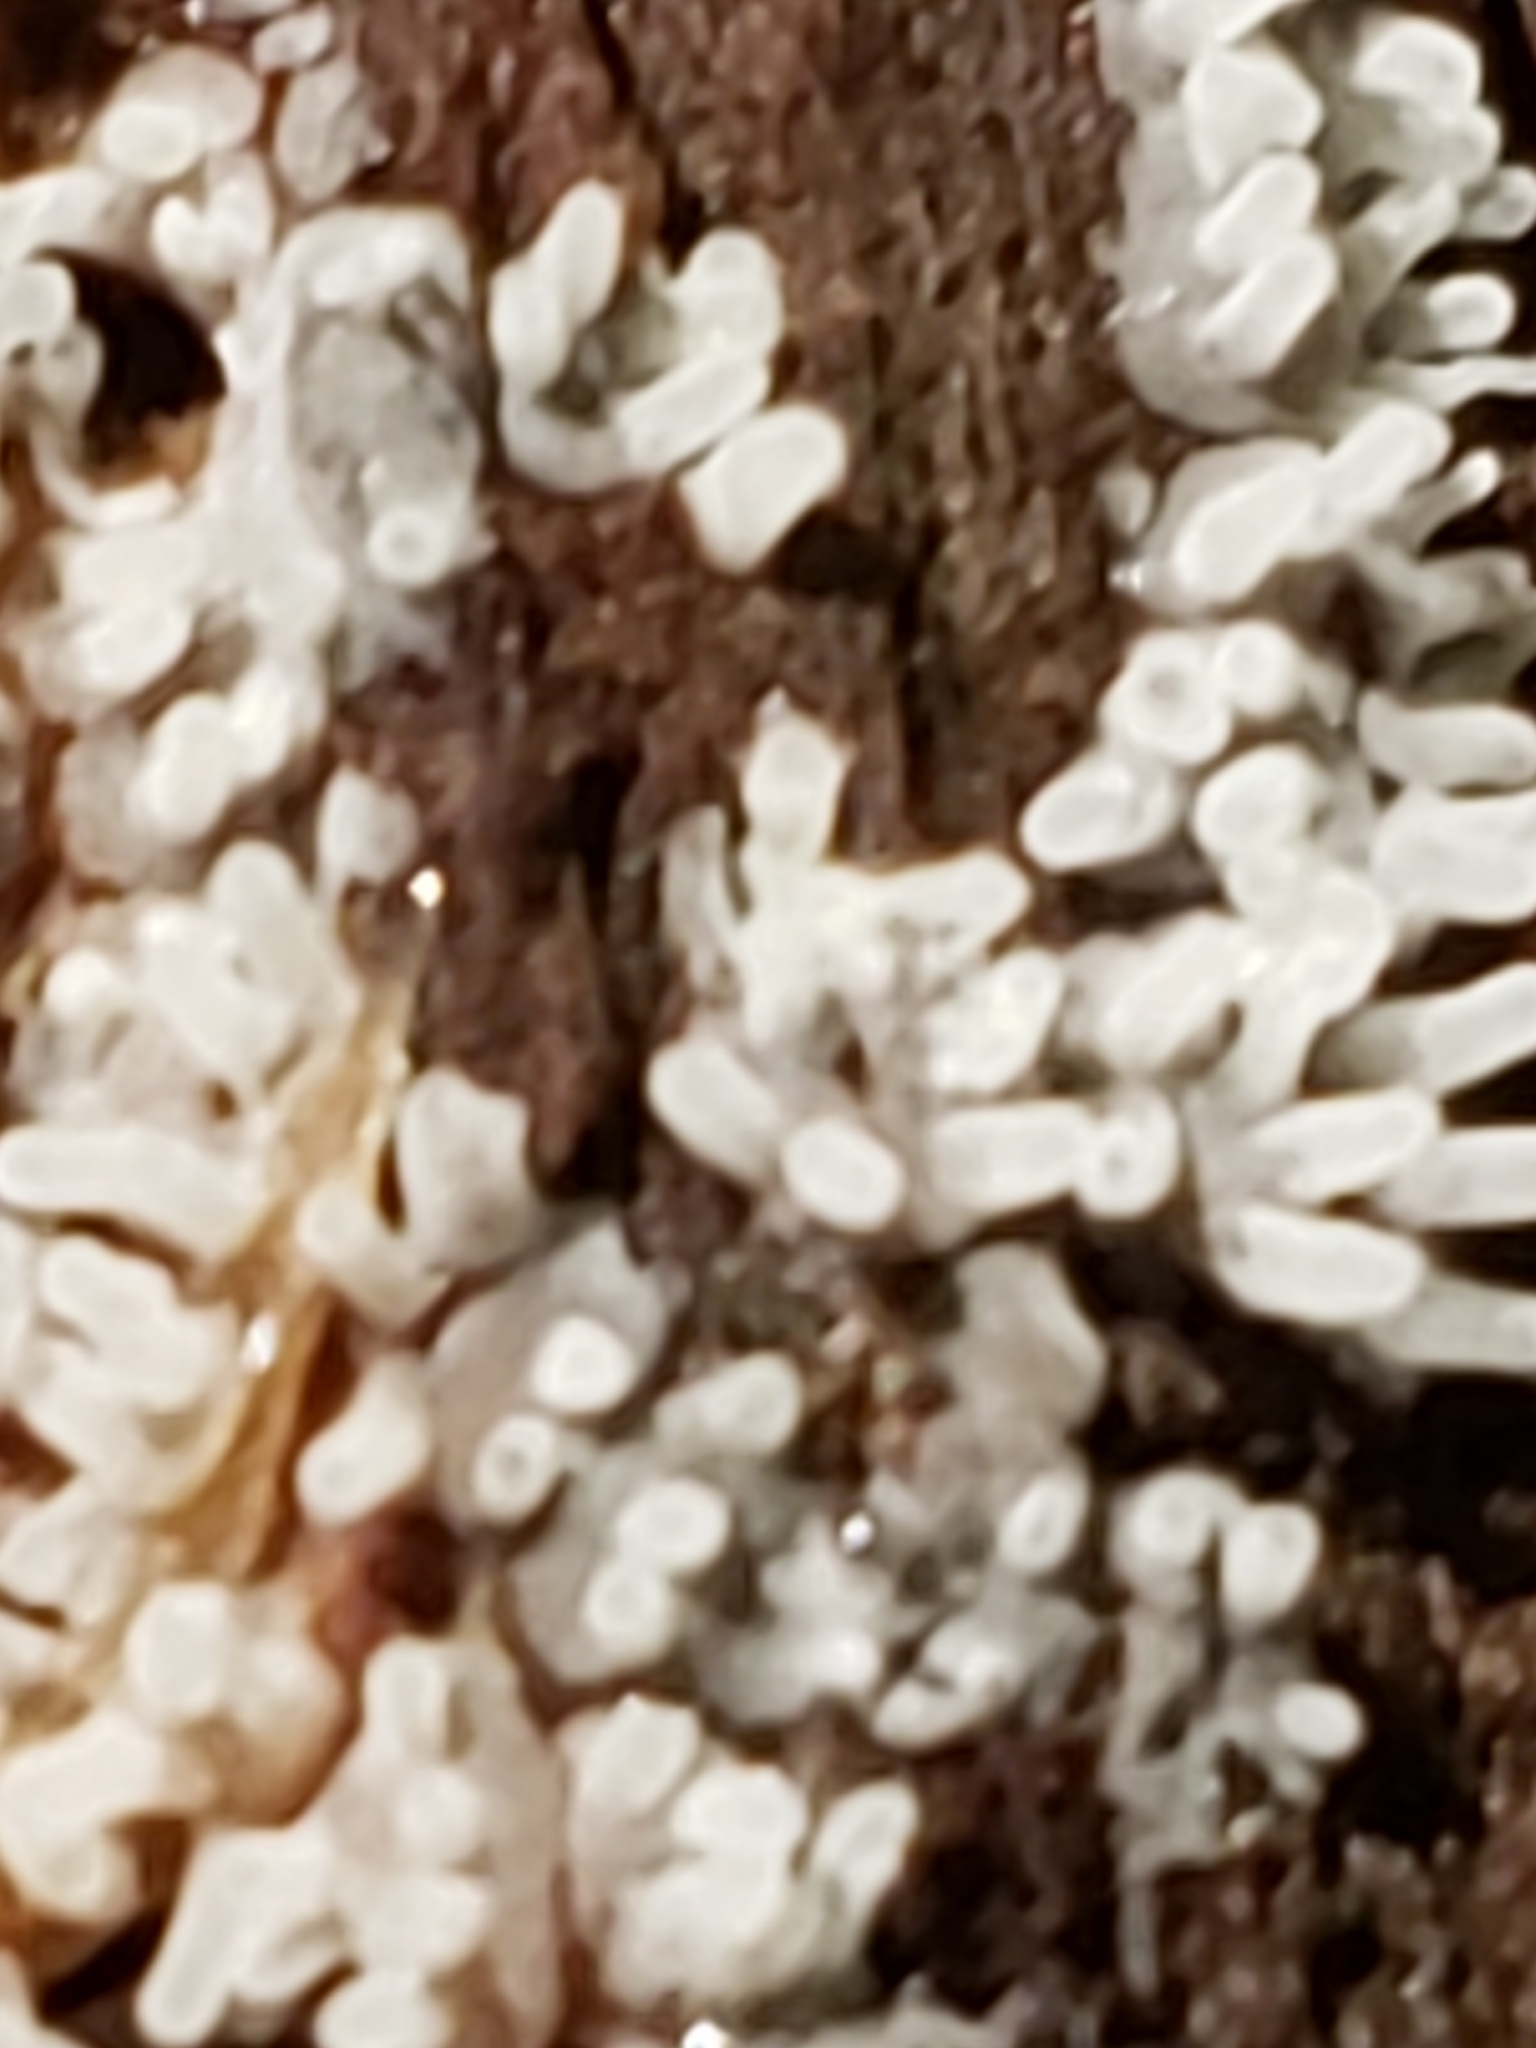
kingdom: Protozoa
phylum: Mycetozoa
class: Protosteliomycetes
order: Ceratiomyxales
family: Ceratiomyxaceae
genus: Ceratiomyxa
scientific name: Ceratiomyxa fruticulosa
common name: Honeycomb coral slime mold
